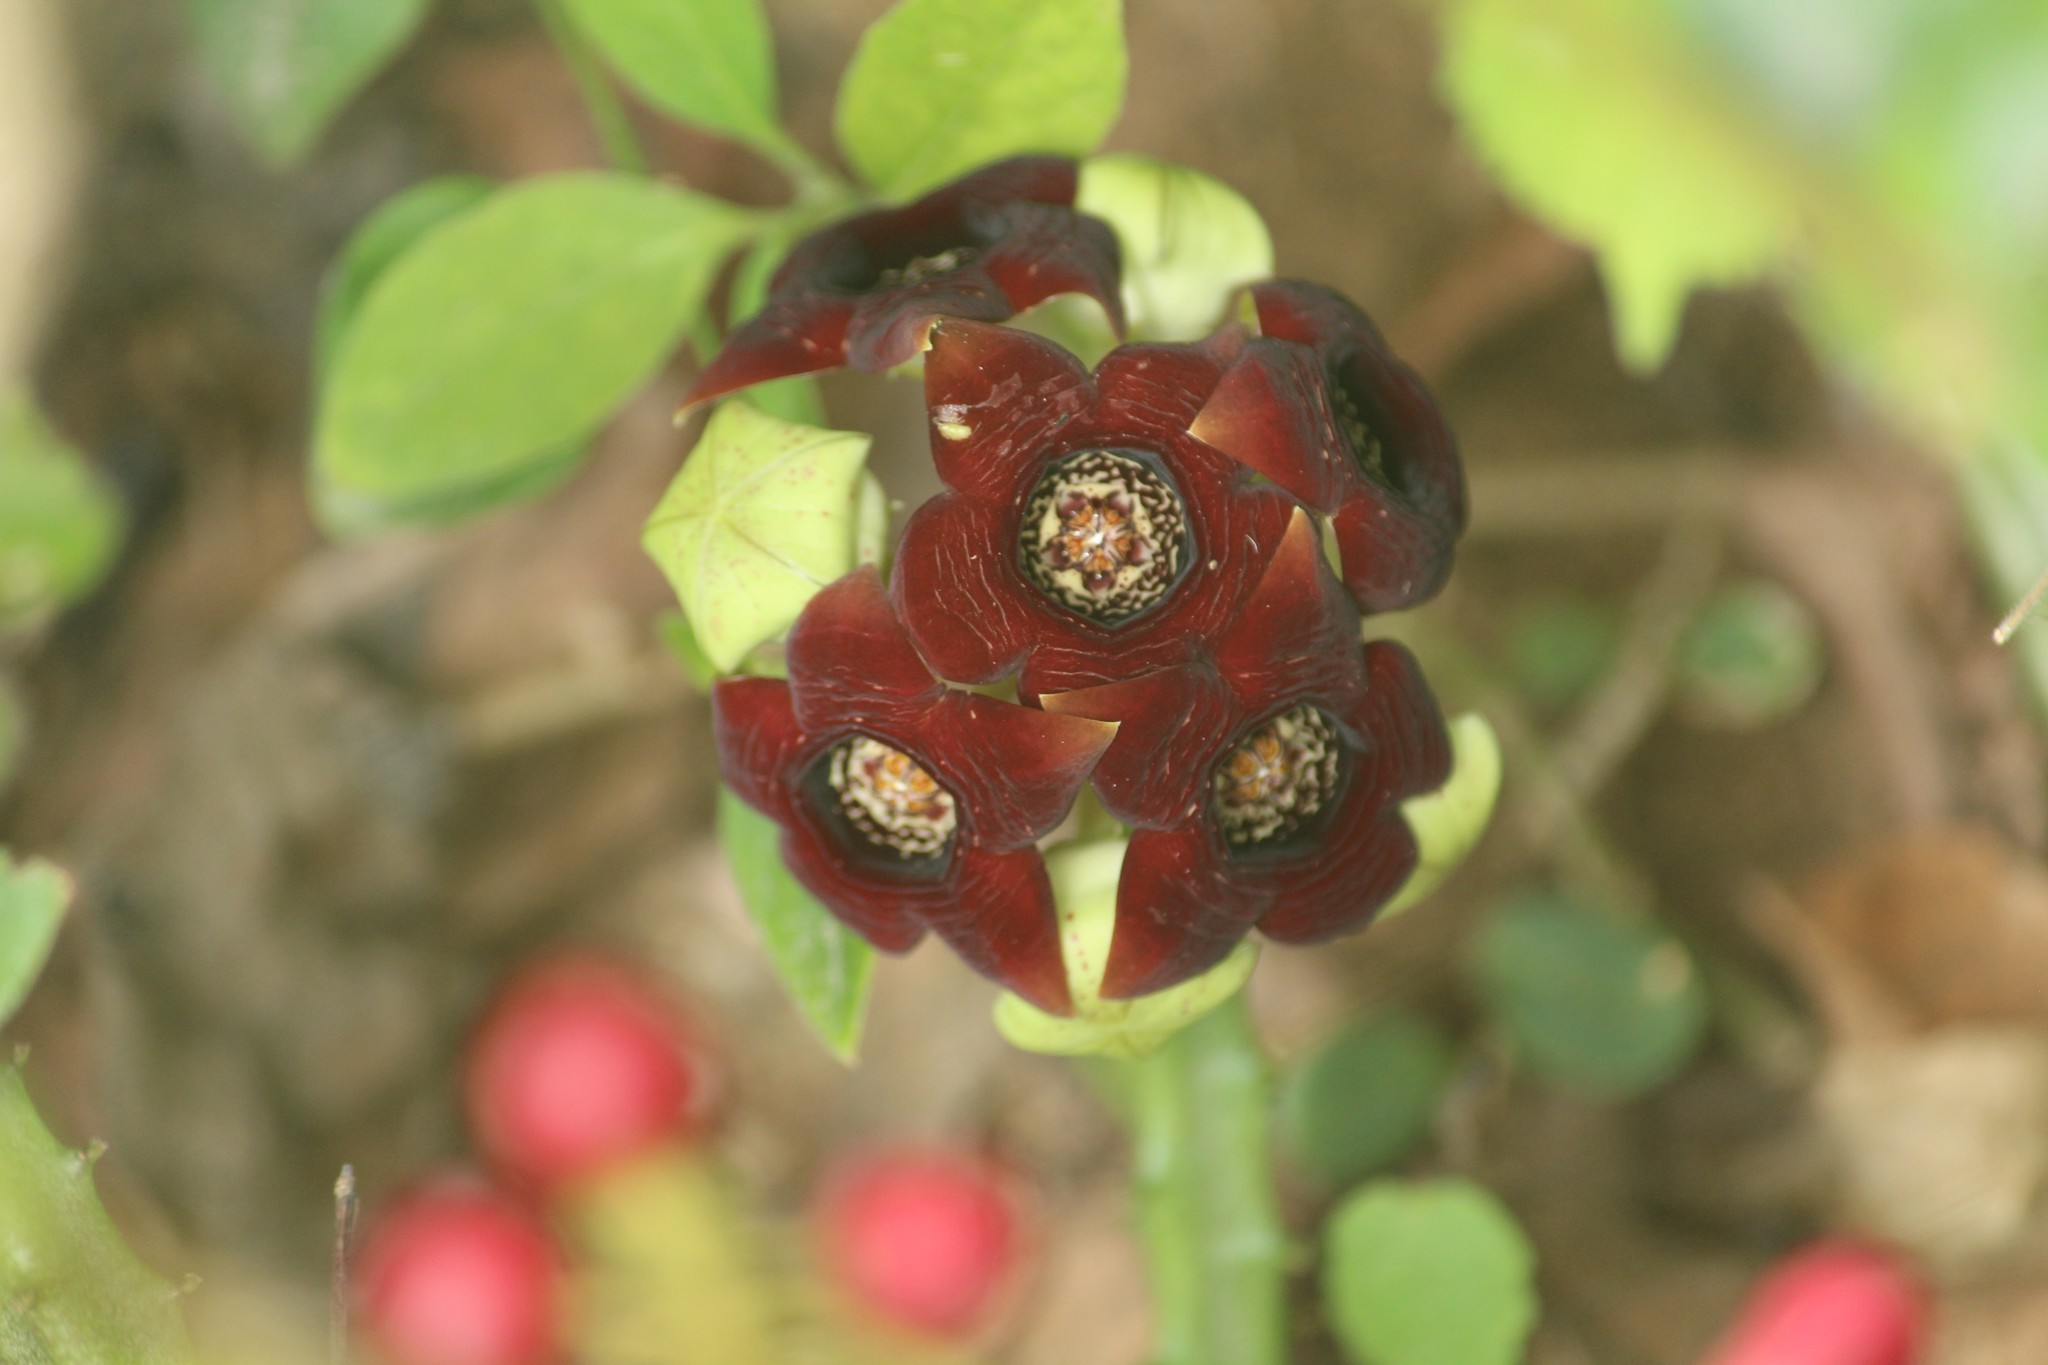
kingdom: Plantae
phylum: Tracheophyta
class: Magnoliopsida
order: Gentianales
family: Apocynaceae
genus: Ceropegia
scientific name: Ceropegia crenulata
